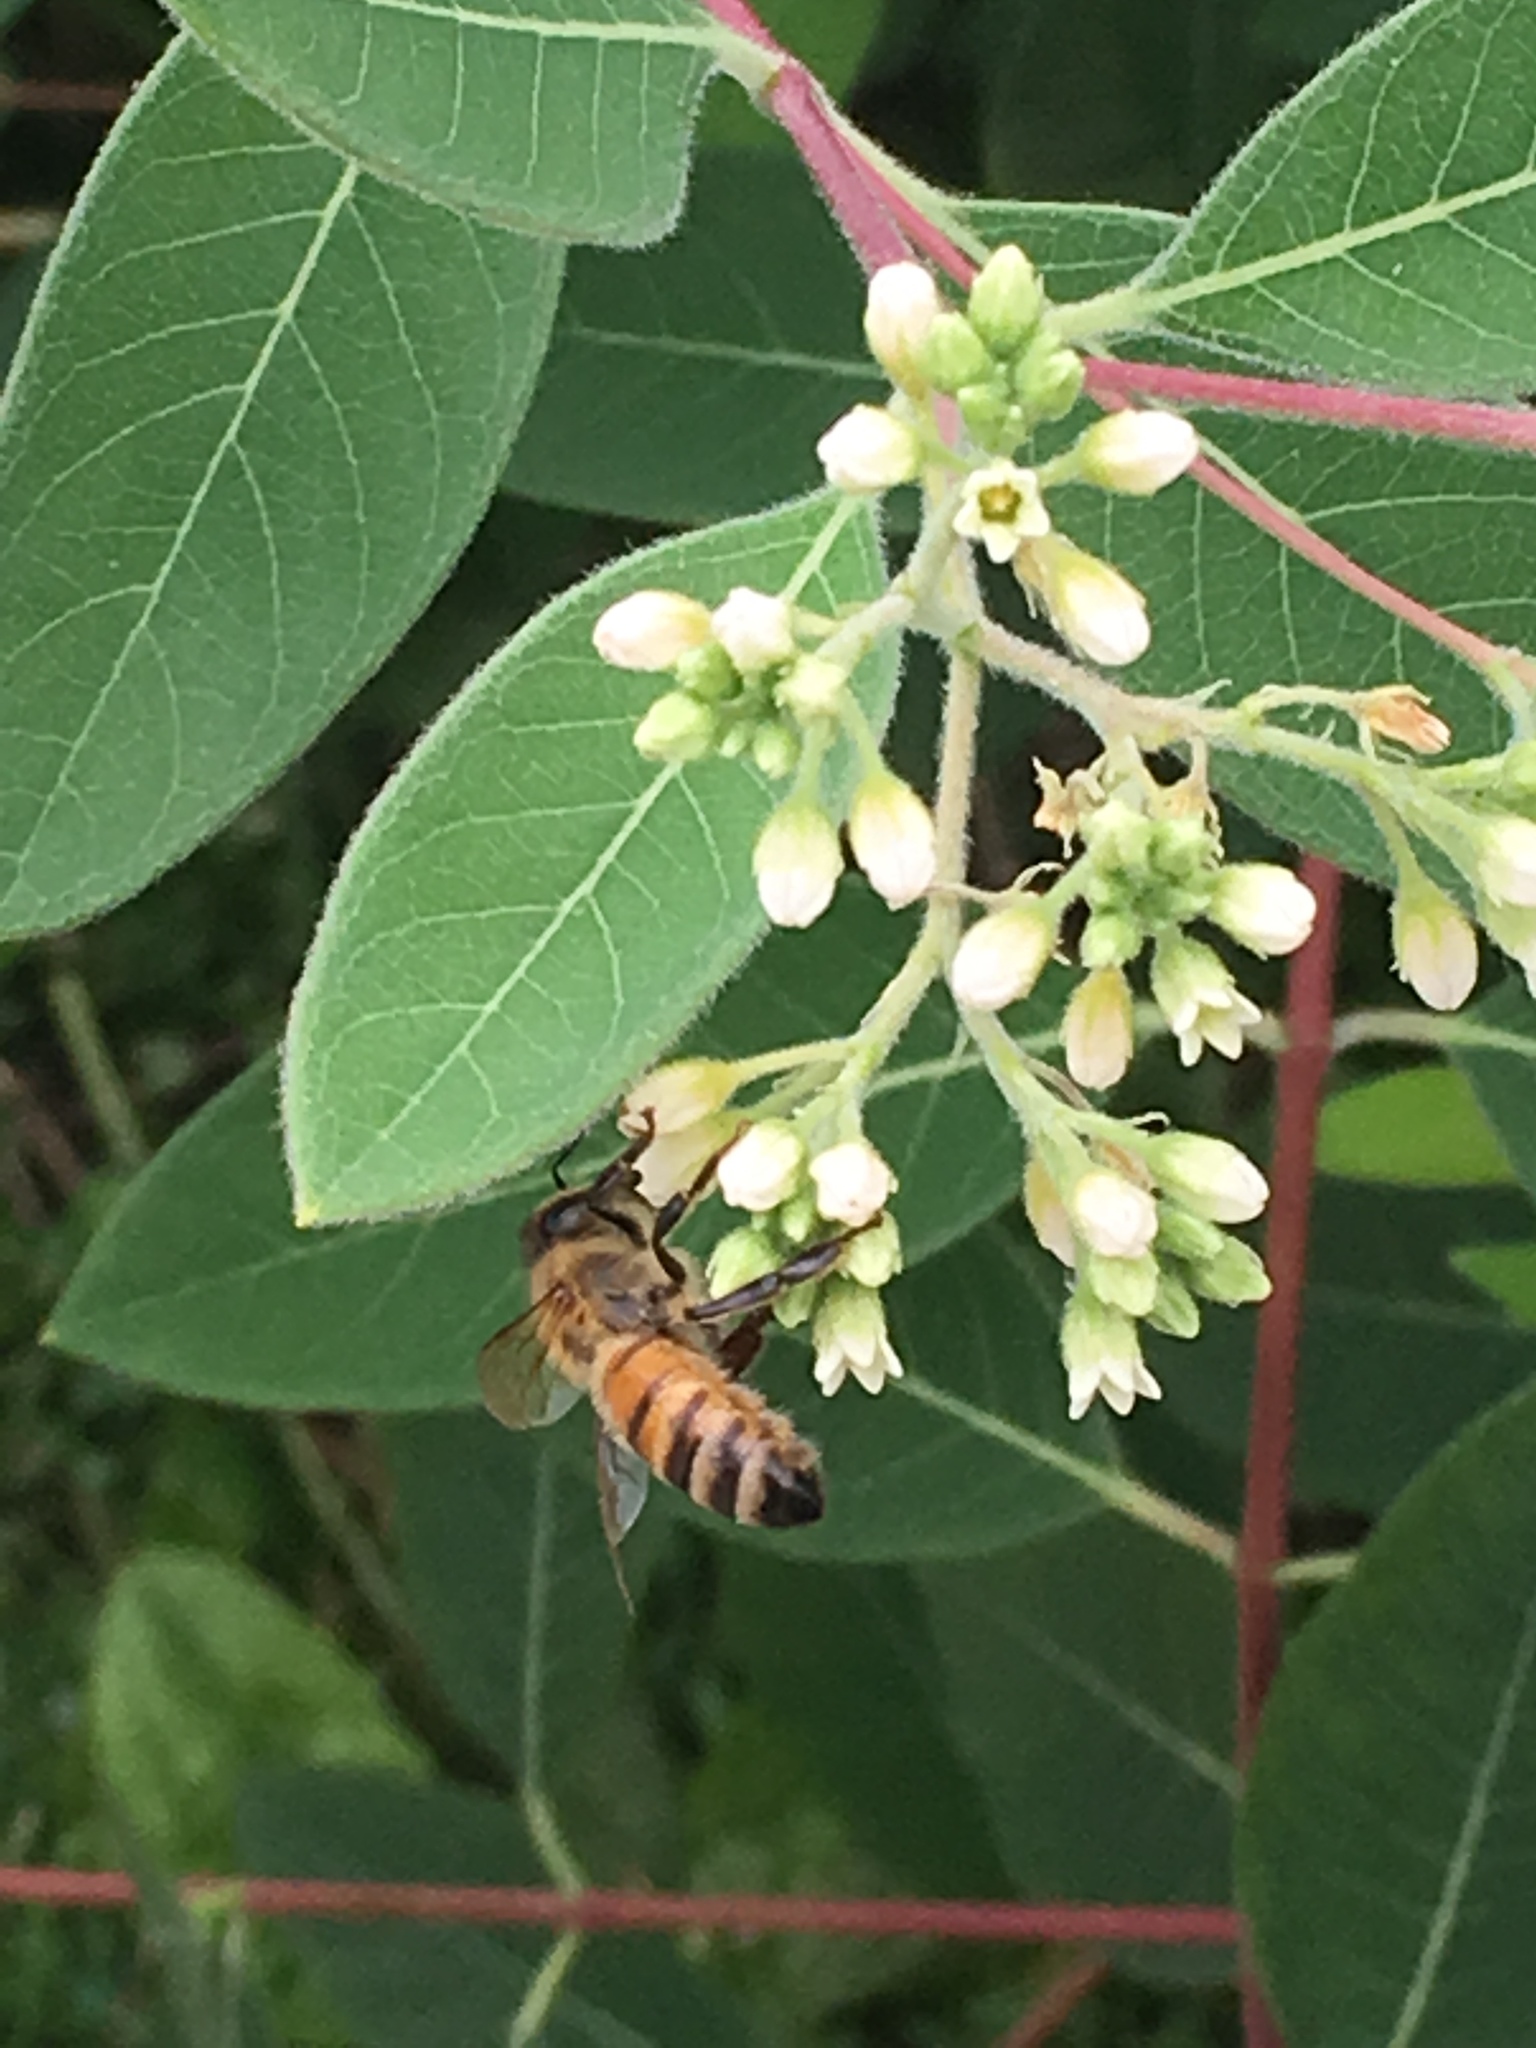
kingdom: Animalia
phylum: Arthropoda
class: Insecta
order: Hymenoptera
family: Apidae
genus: Apis
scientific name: Apis mellifera
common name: Honey bee
